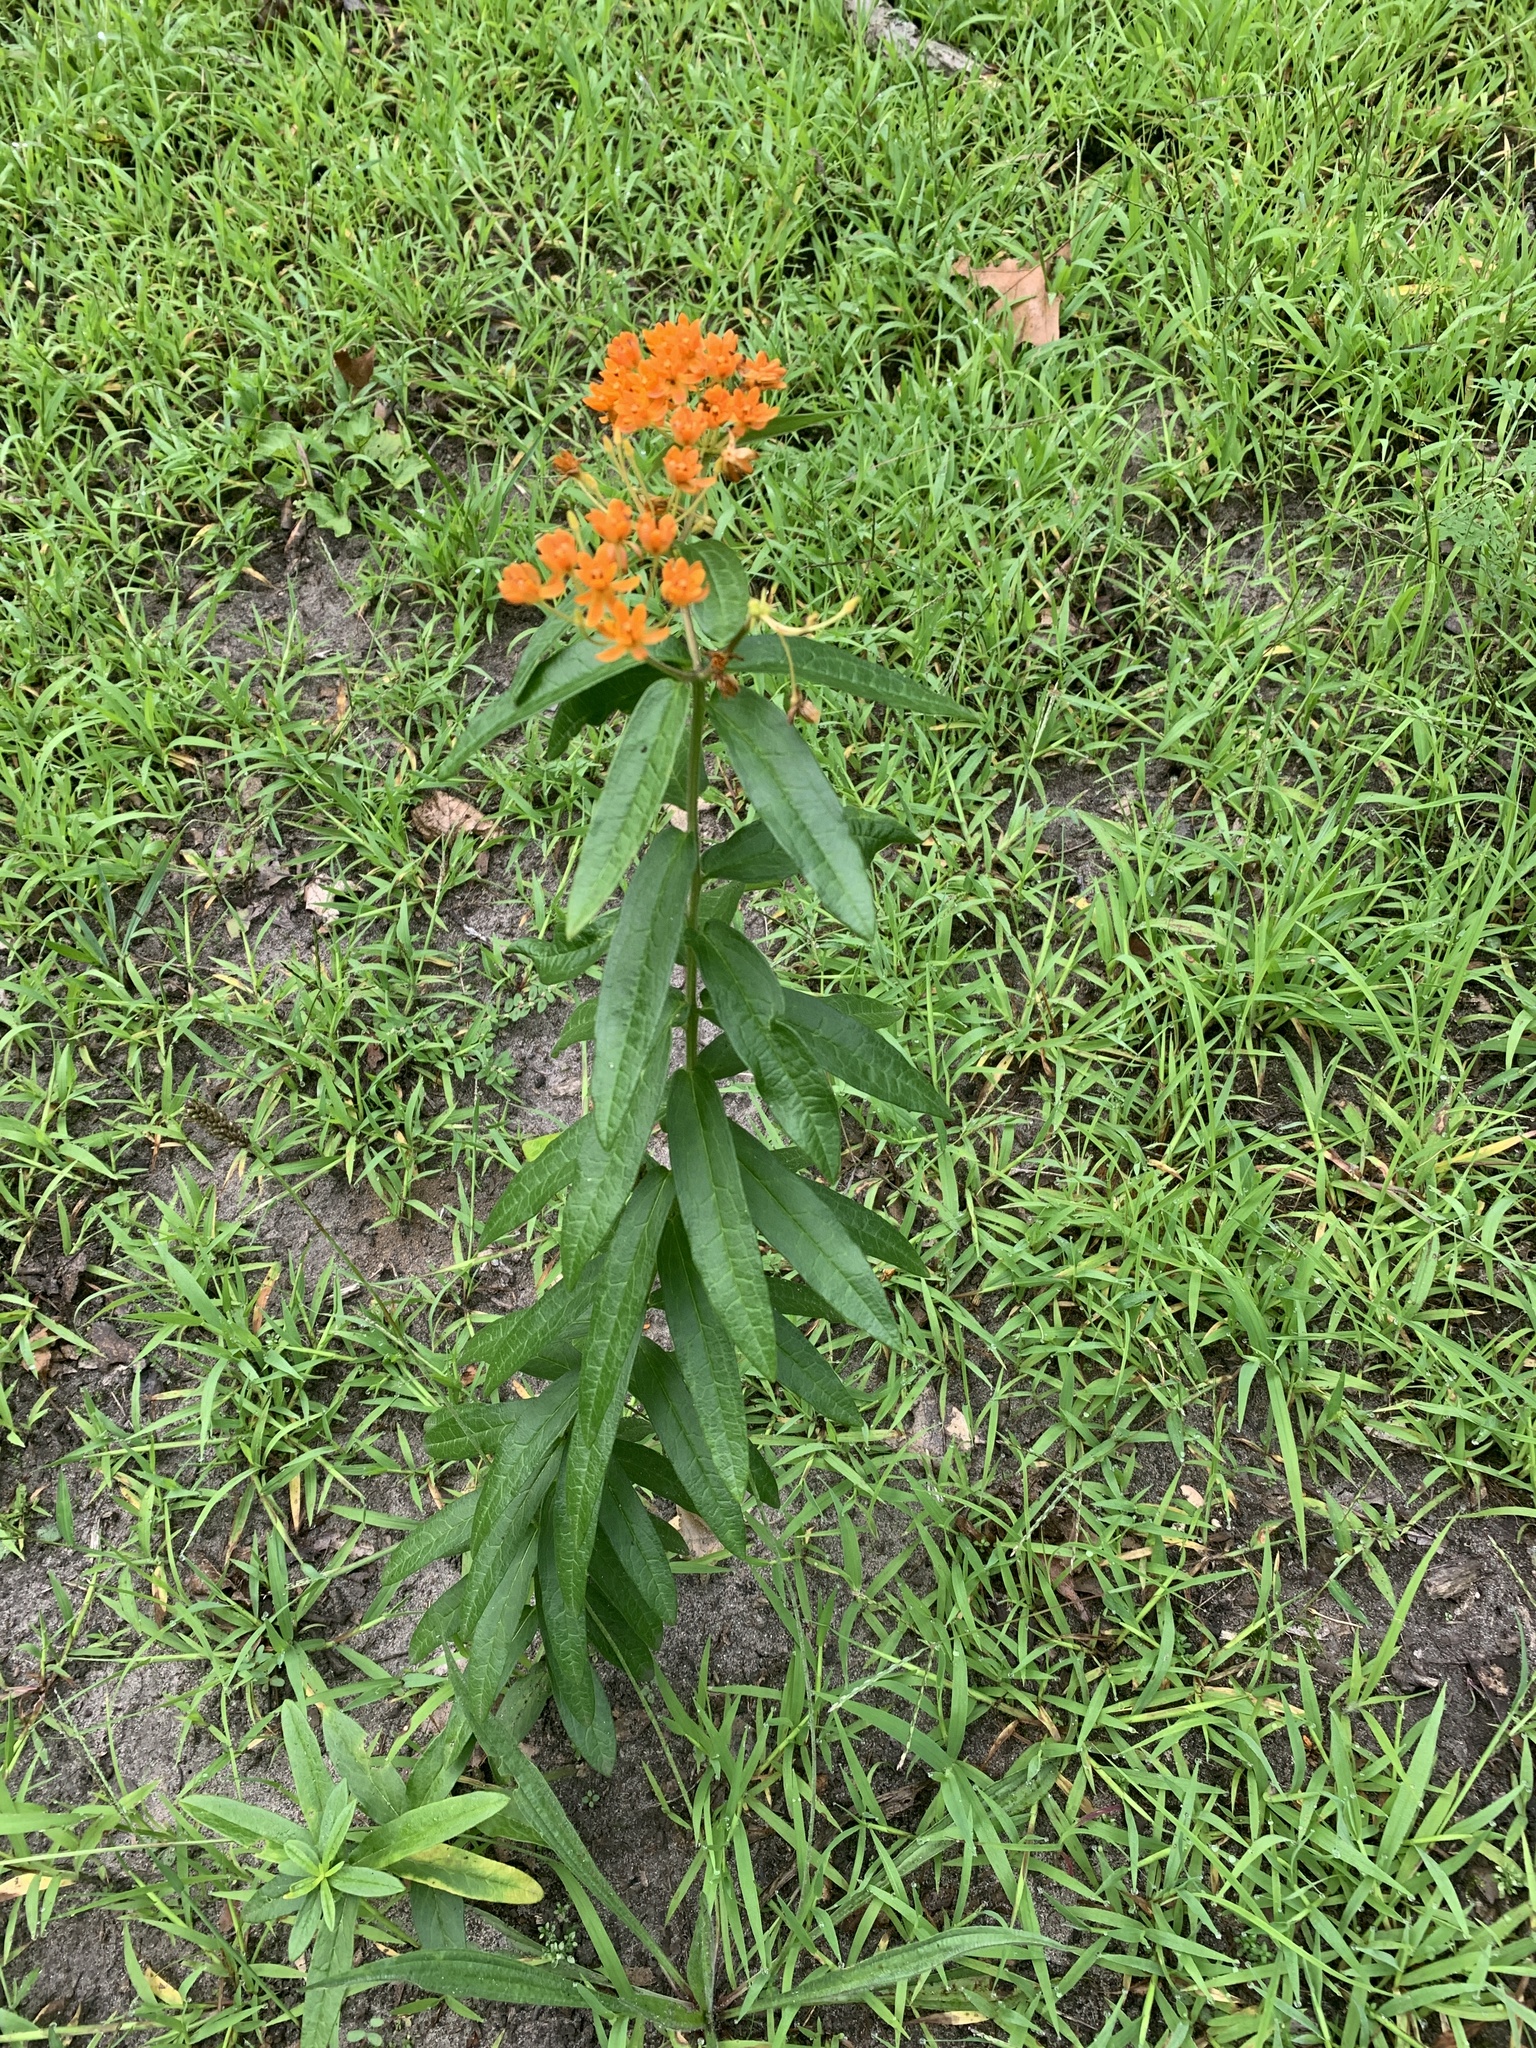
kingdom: Plantae
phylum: Tracheophyta
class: Magnoliopsida
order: Gentianales
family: Apocynaceae
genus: Asclepias
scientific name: Asclepias tuberosa
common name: Butterfly milkweed
